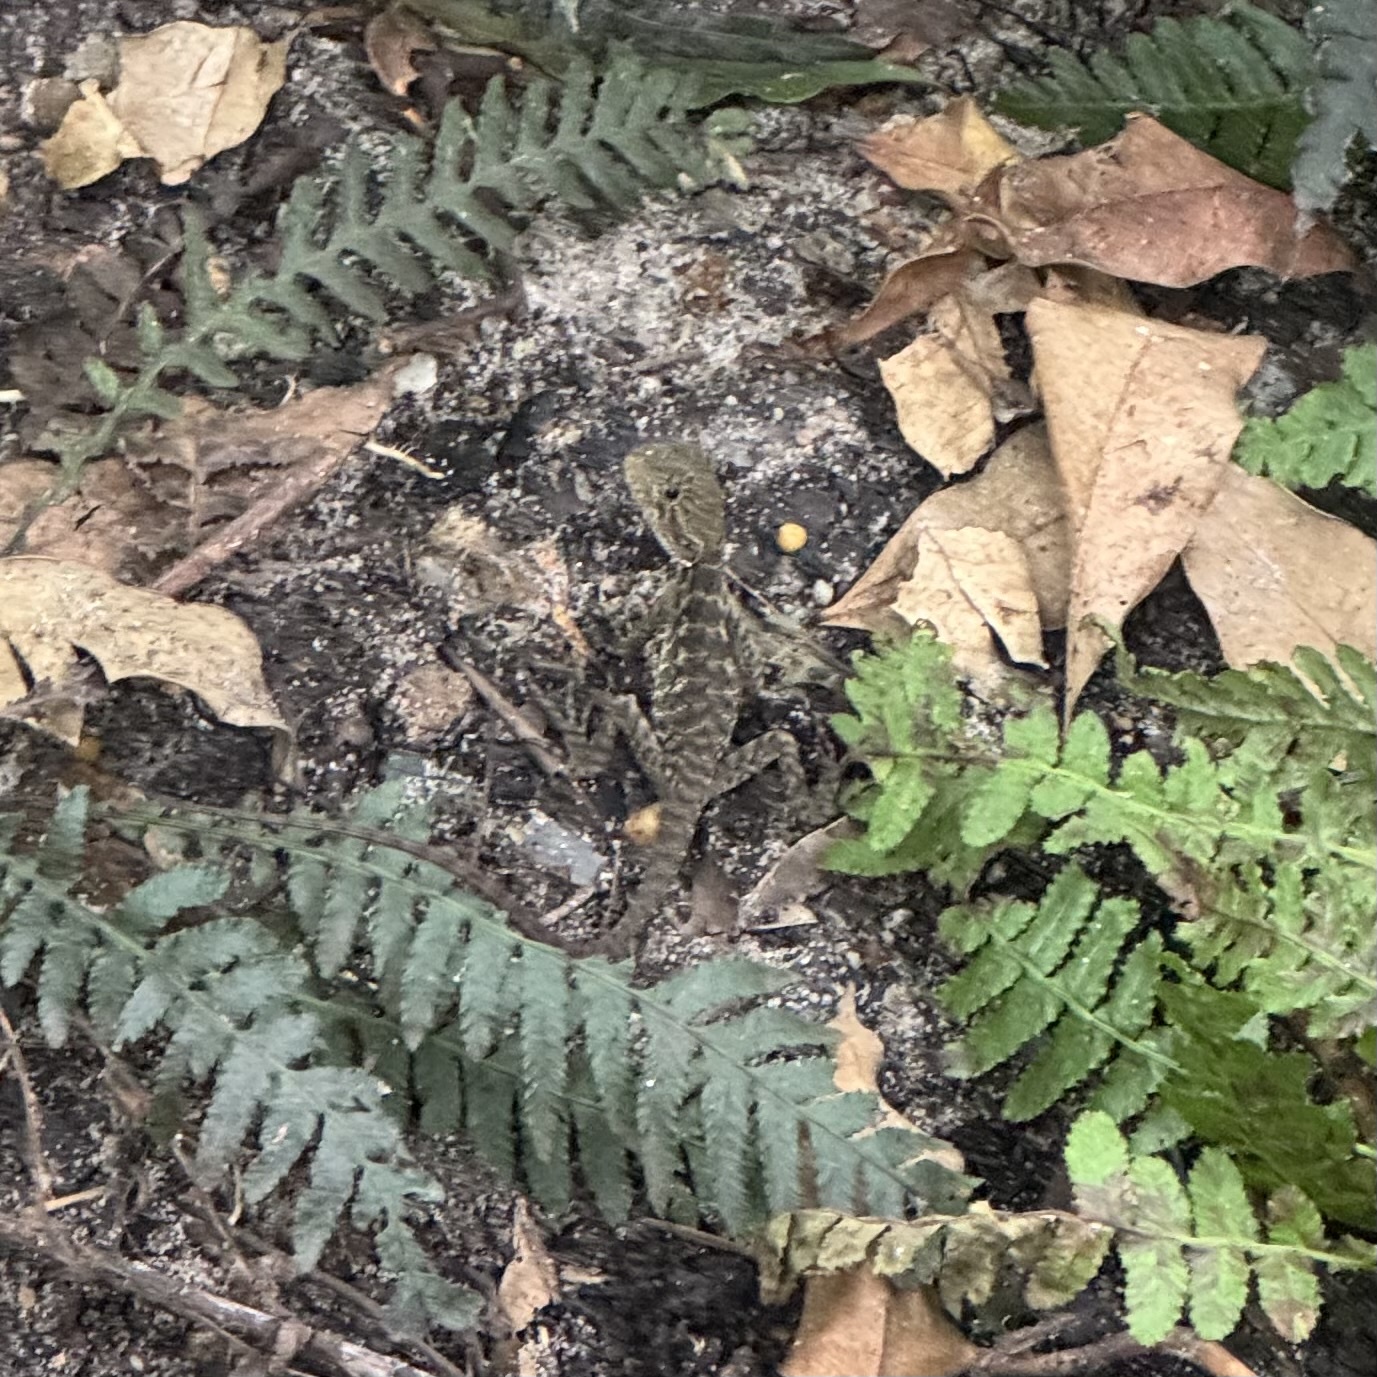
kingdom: Animalia
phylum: Chordata
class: Squamata
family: Agamidae
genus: Intellagama
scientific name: Intellagama lesueurii
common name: Eastern water dragon
